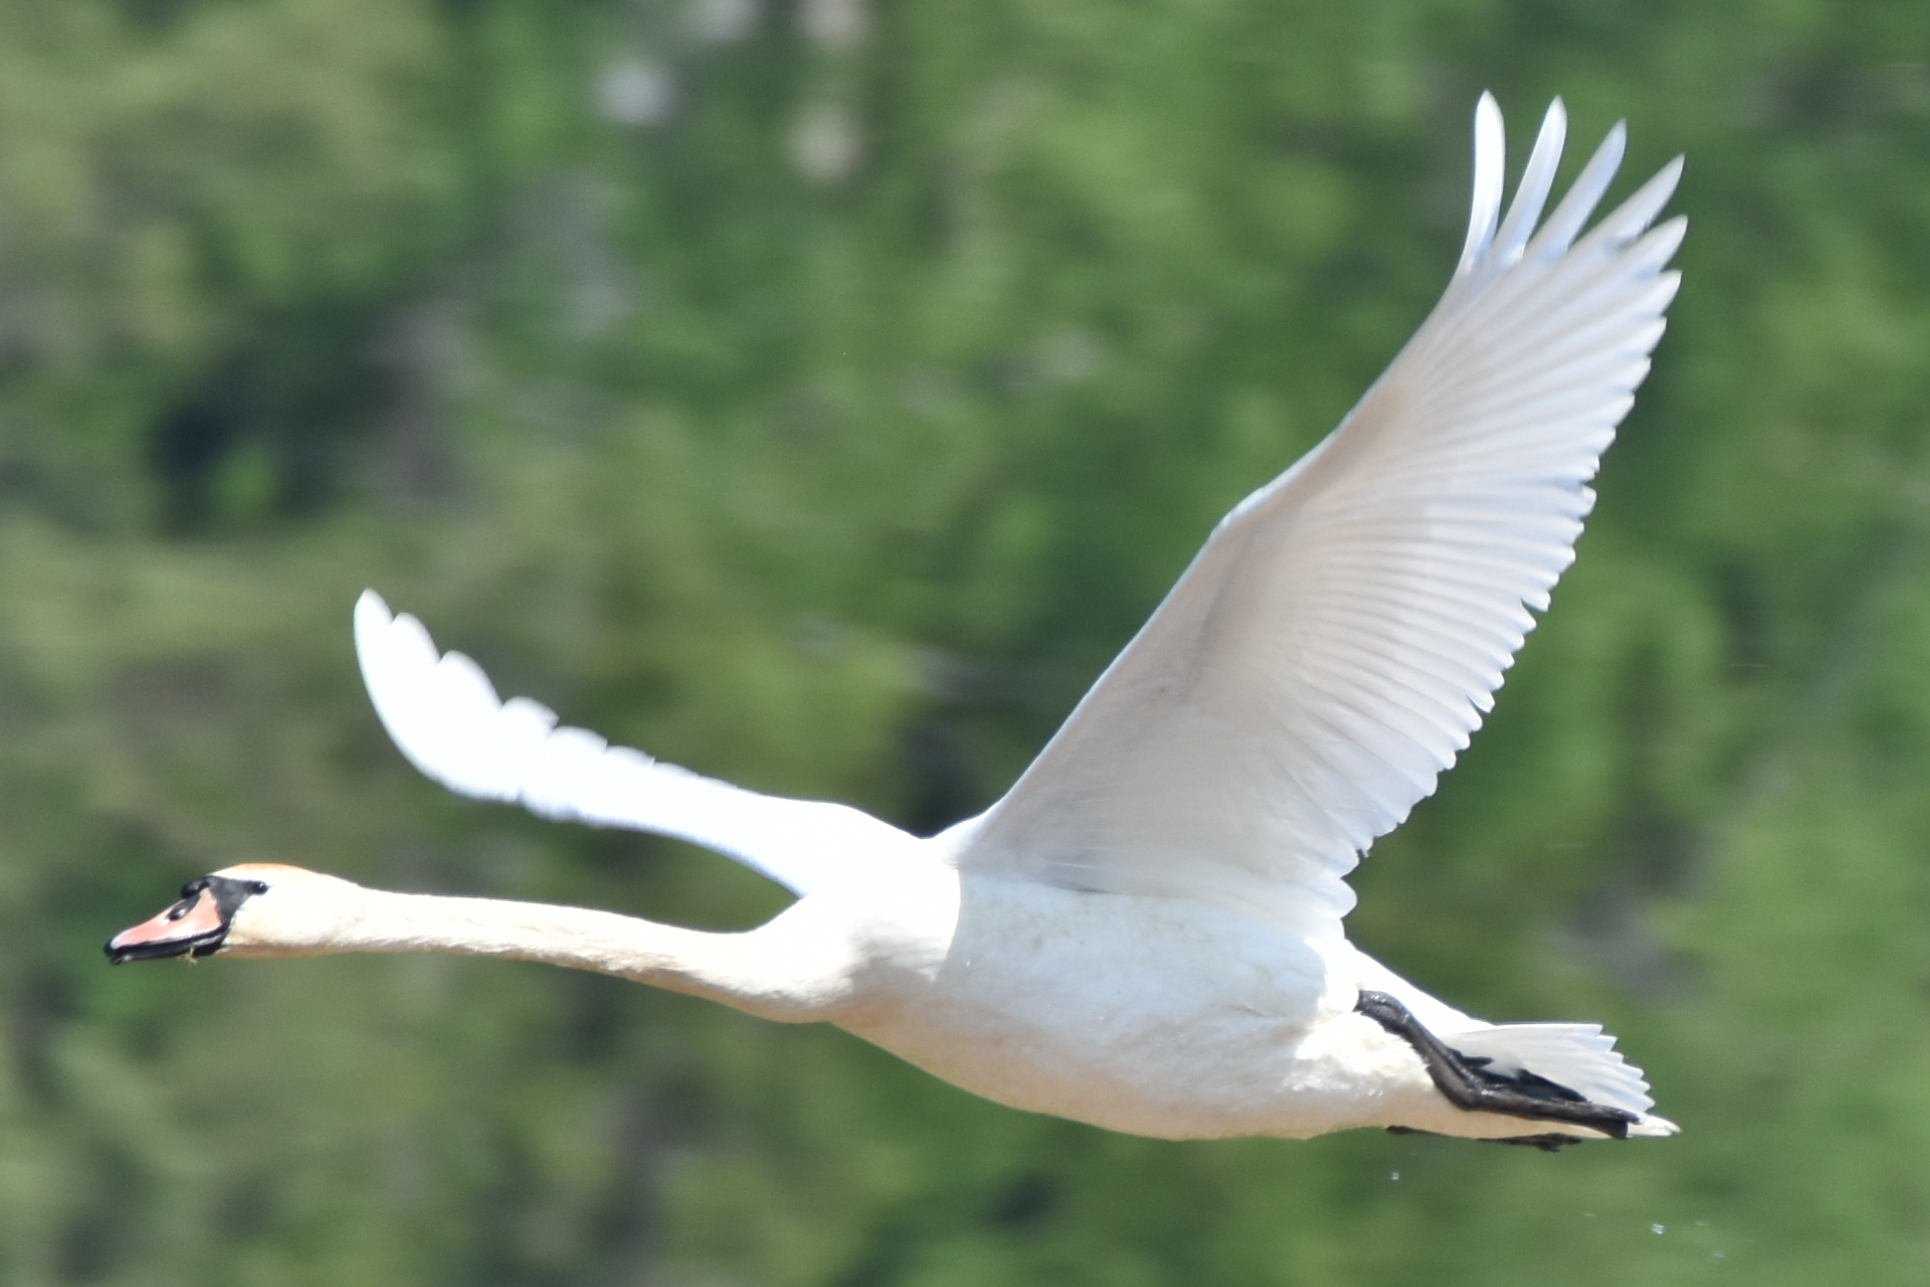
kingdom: Animalia
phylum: Chordata
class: Aves
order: Anseriformes
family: Anatidae
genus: Cygnus
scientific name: Cygnus olor
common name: Mute swan
